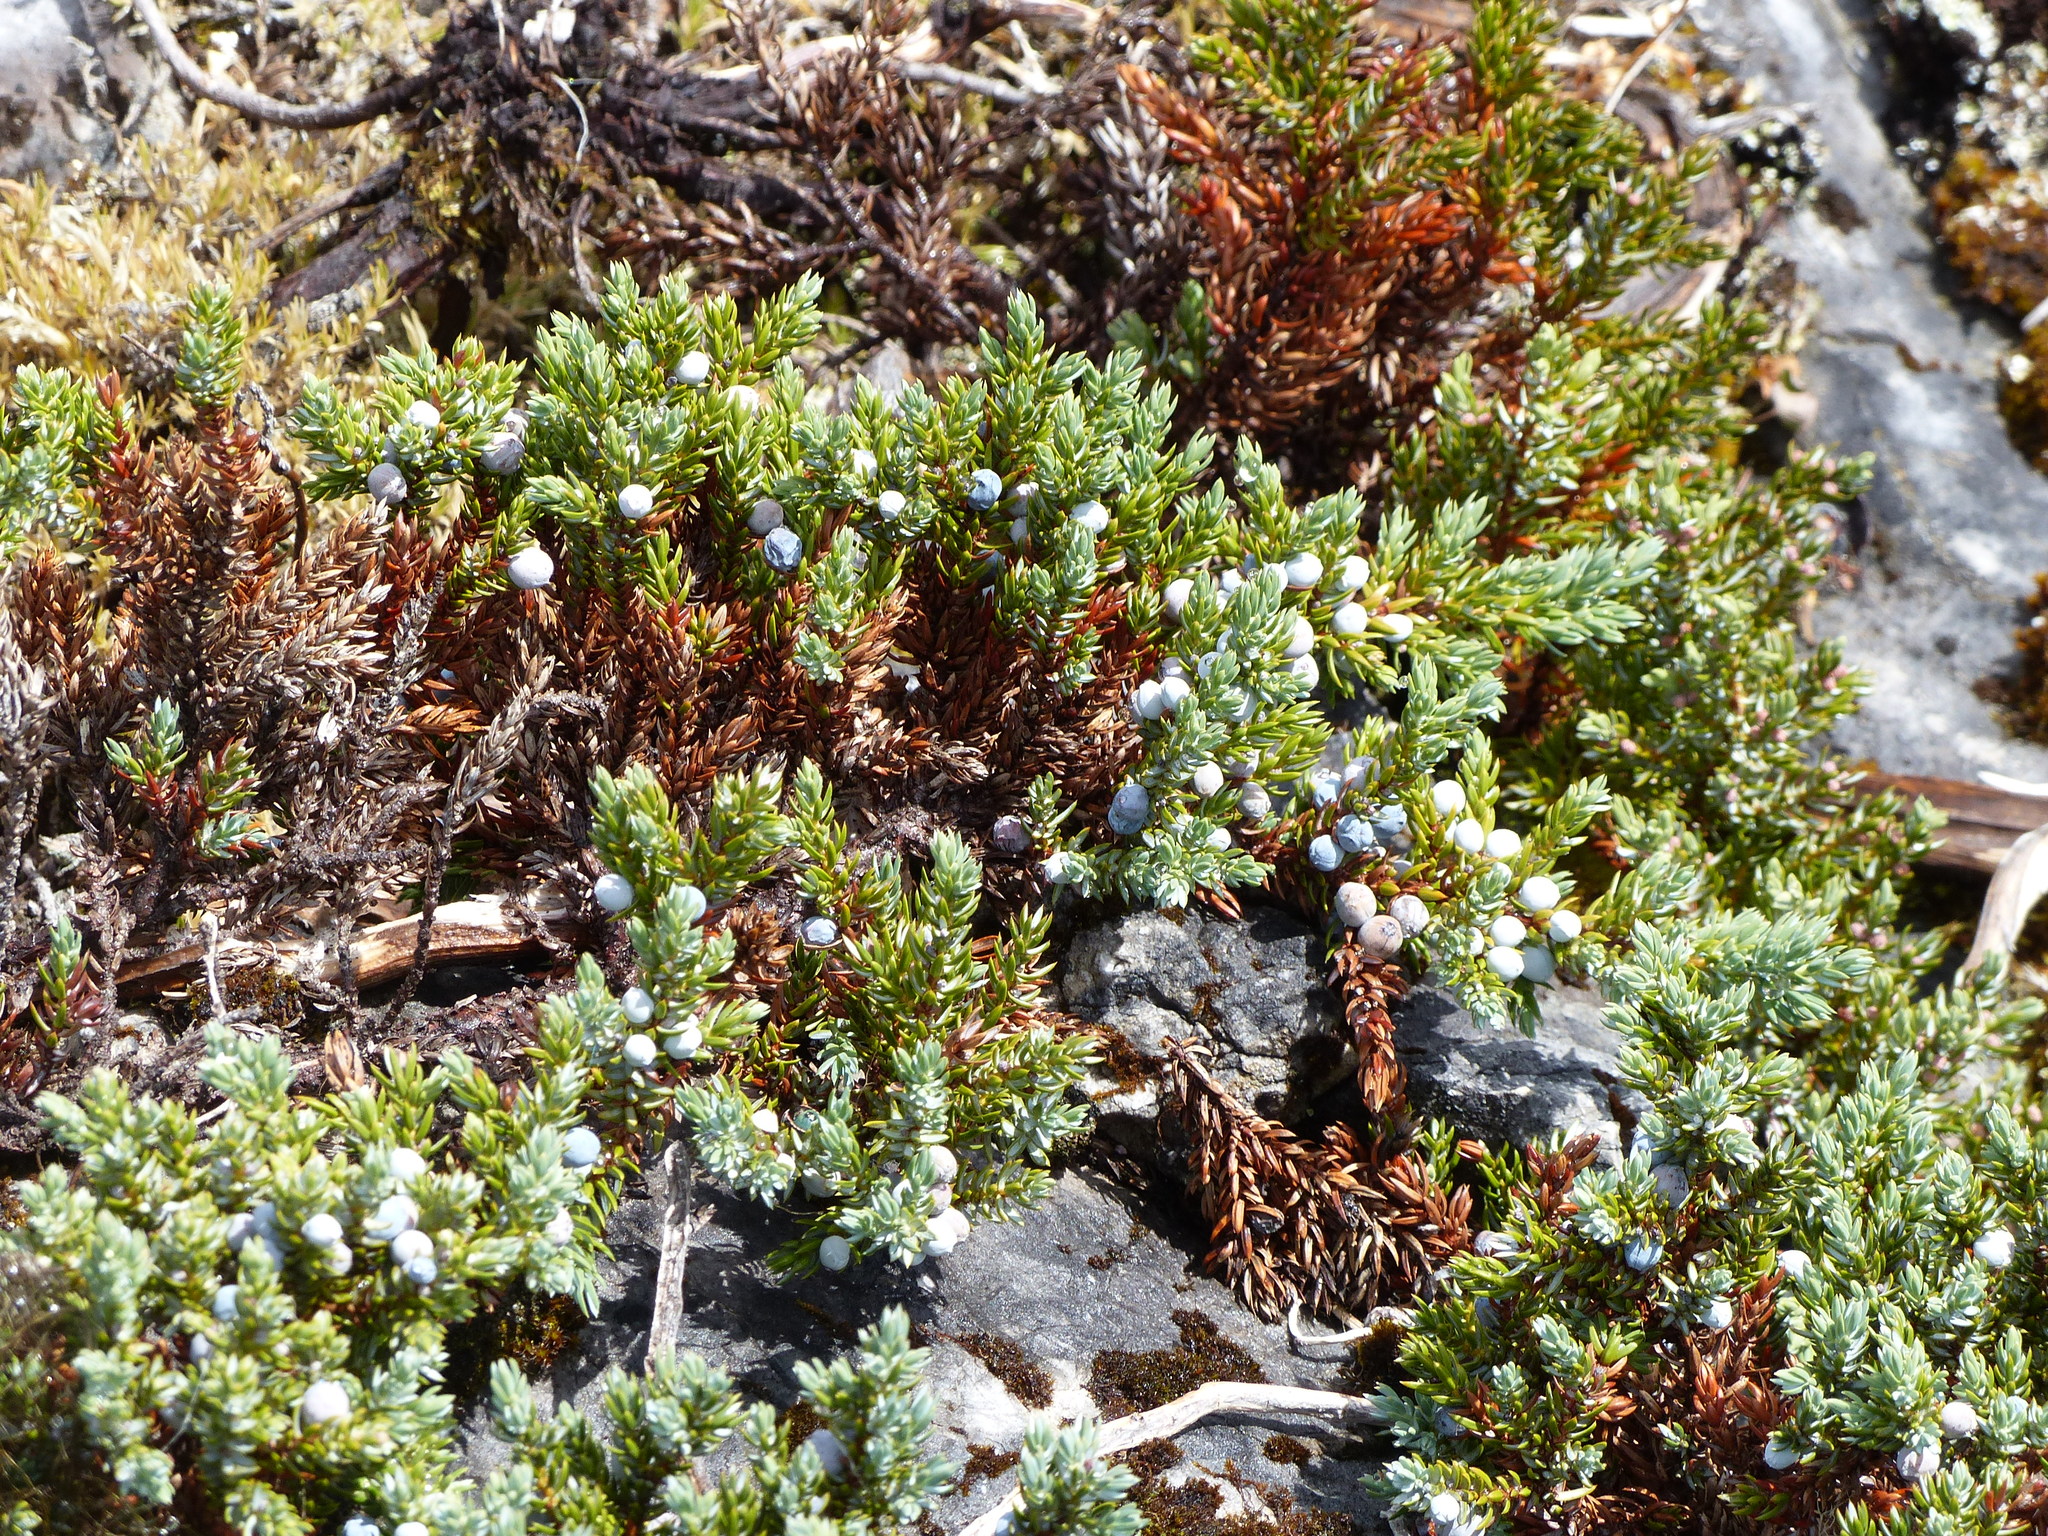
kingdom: Plantae
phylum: Tracheophyta
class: Pinopsida
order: Pinales
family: Cupressaceae
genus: Juniperus
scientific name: Juniperus communis
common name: Common juniper
